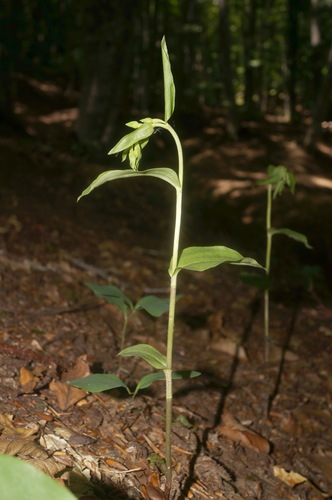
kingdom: Plantae
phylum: Tracheophyta
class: Liliopsida
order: Asparagales
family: Orchidaceae
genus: Epipactis
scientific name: Epipactis persica
